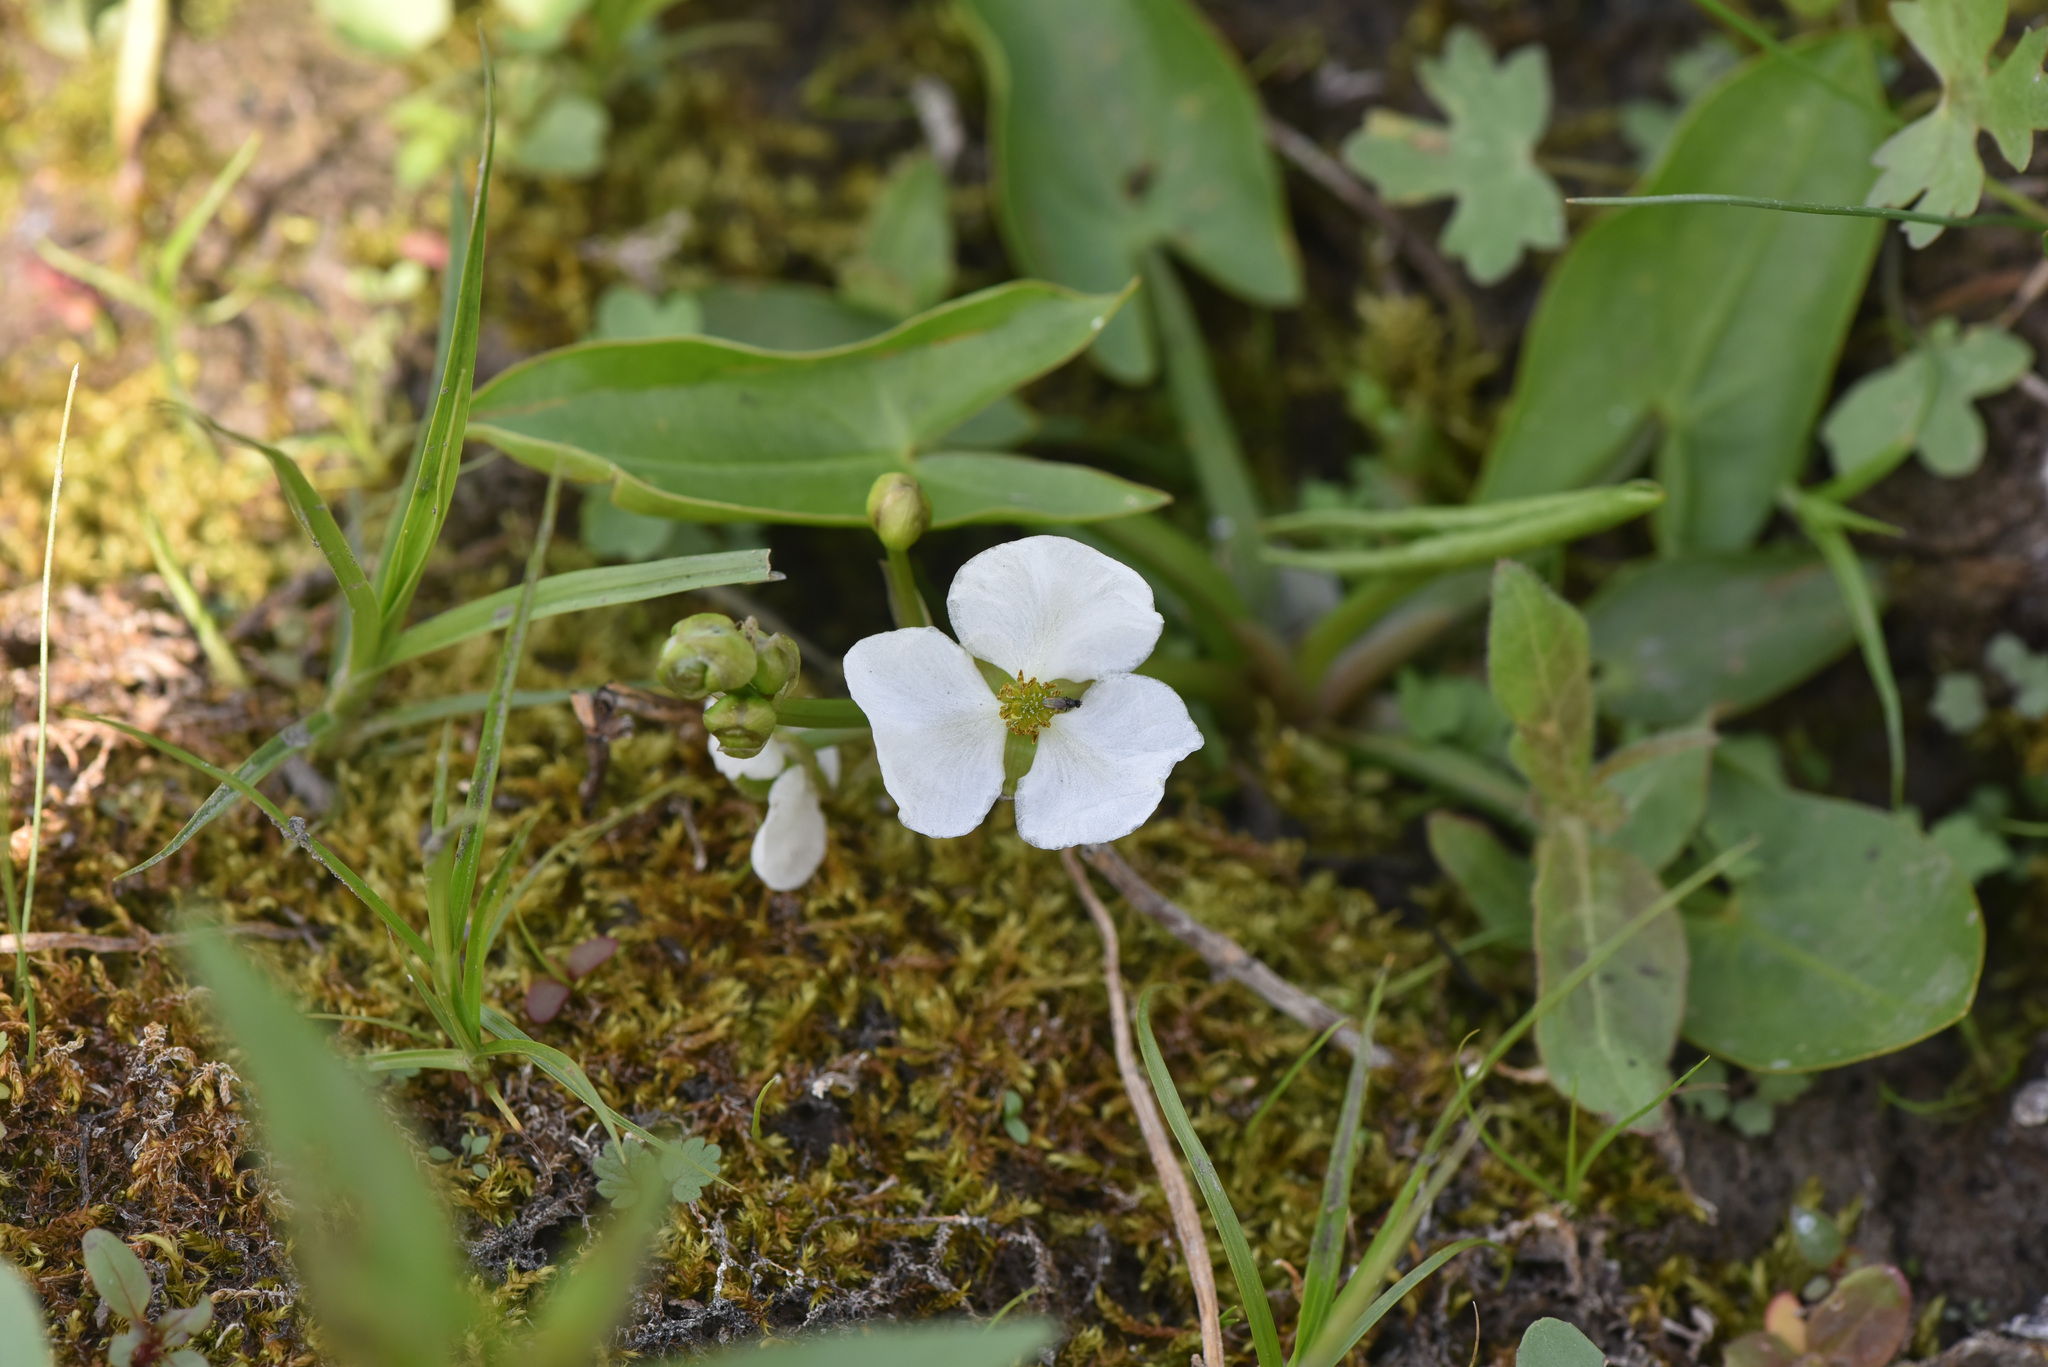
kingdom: Plantae
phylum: Tracheophyta
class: Liliopsida
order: Alismatales
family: Alismataceae
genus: Sagittaria
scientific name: Sagittaria cuneata
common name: Northern arrowhead
